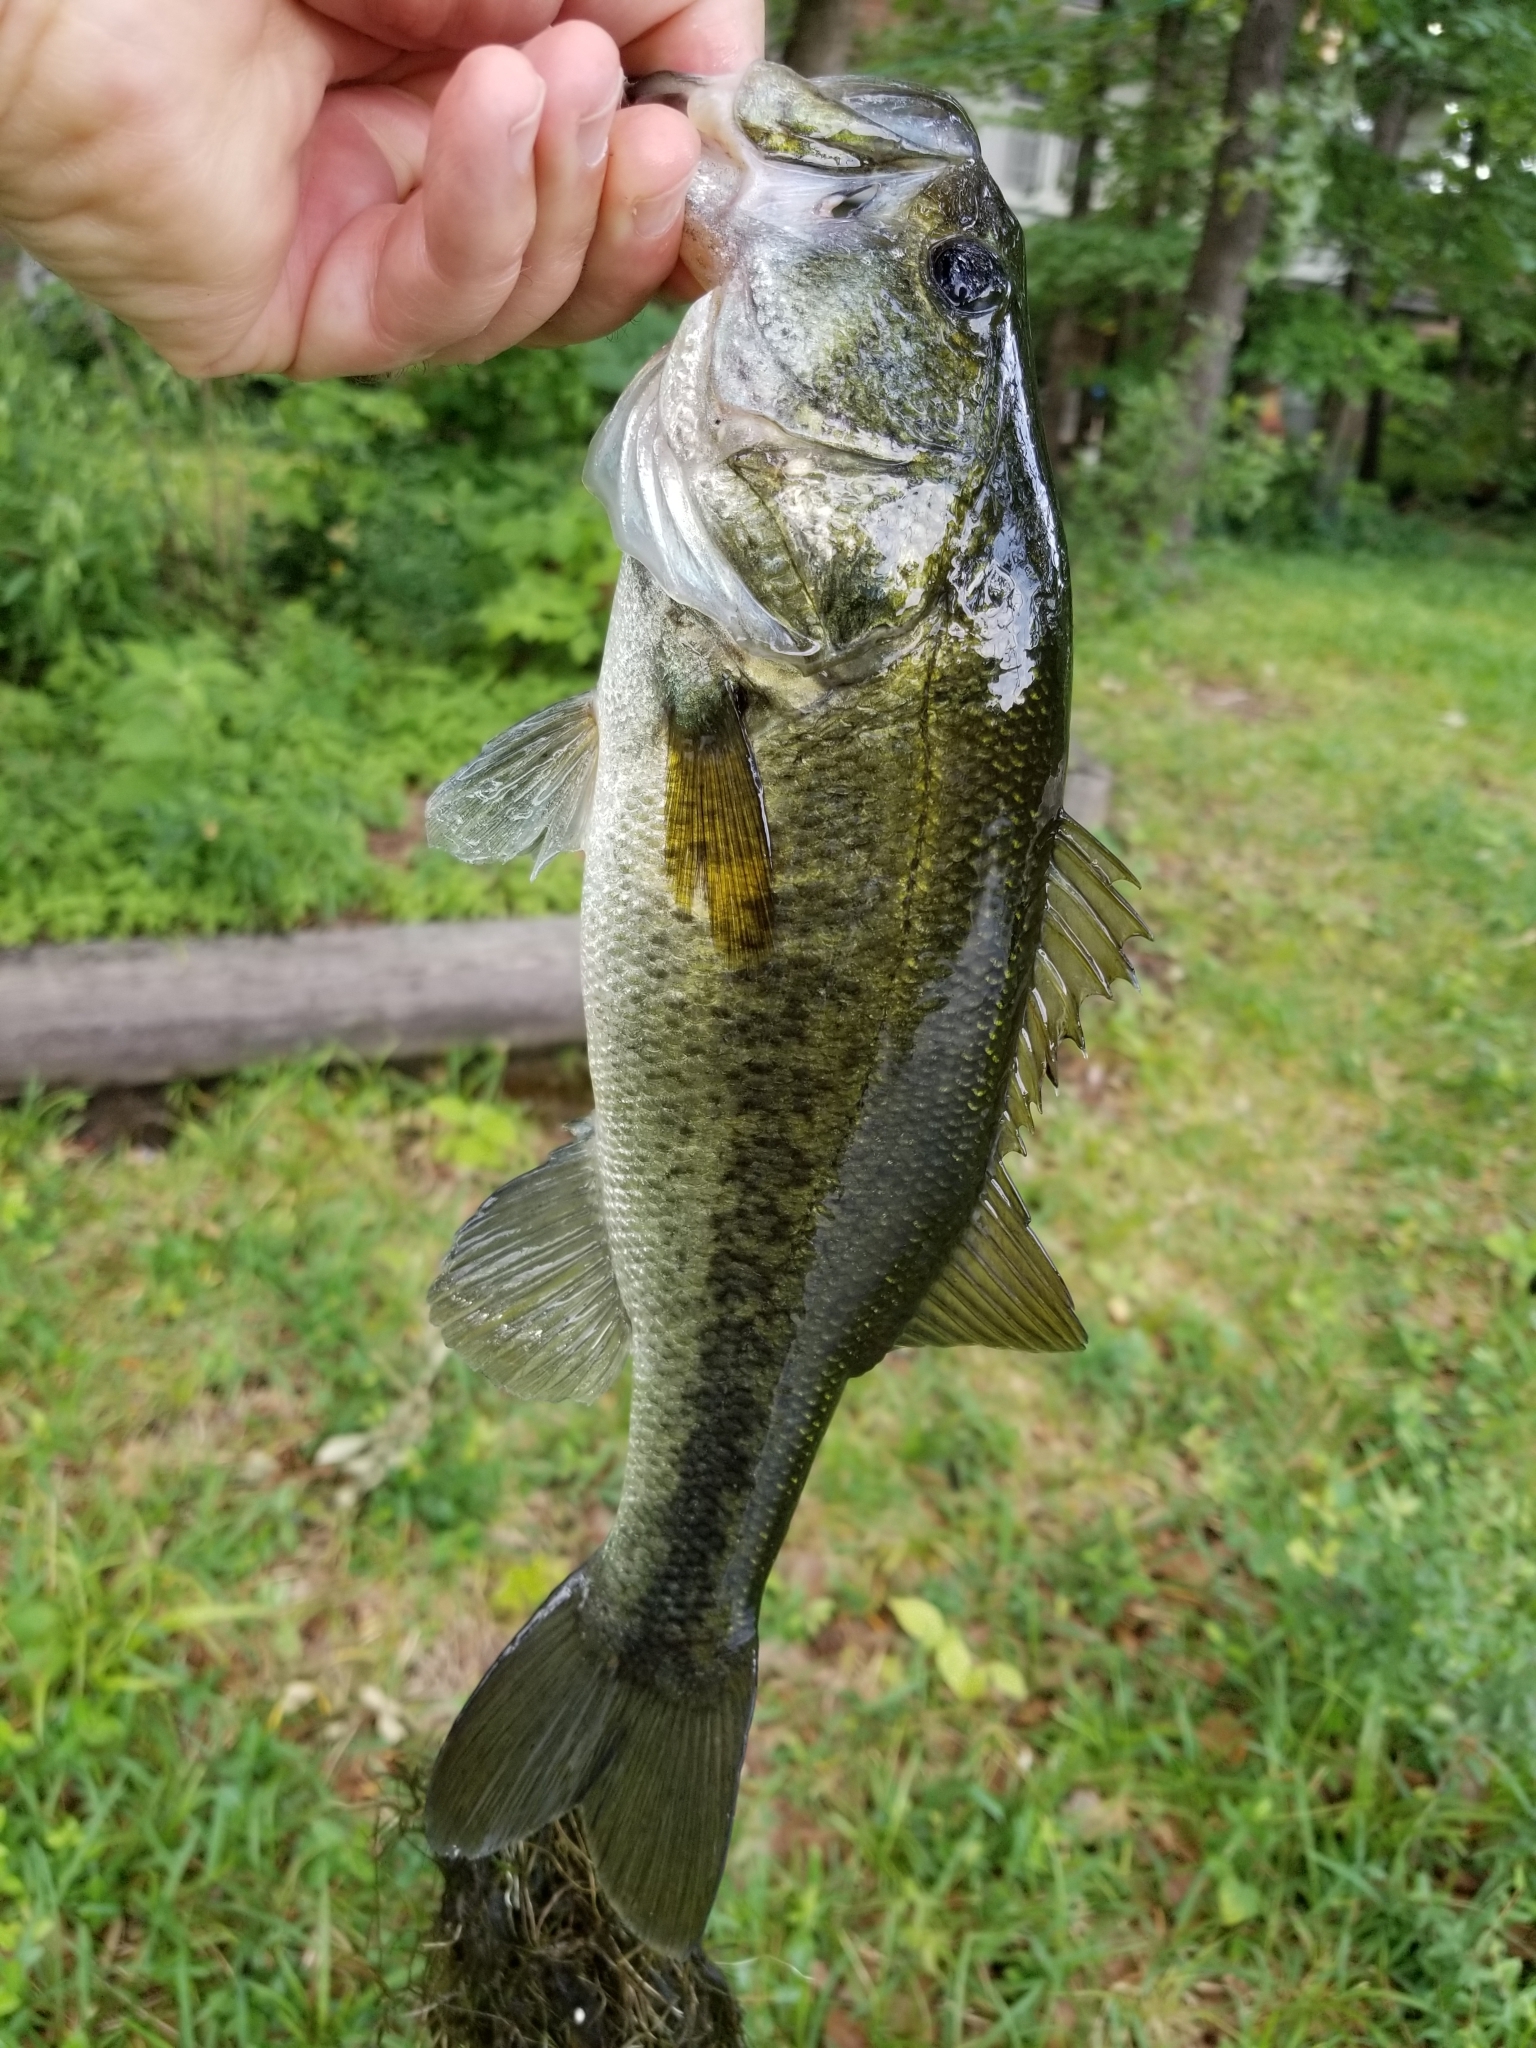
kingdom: Animalia
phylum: Chordata
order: Perciformes
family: Centrarchidae
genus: Micropterus
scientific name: Micropterus
